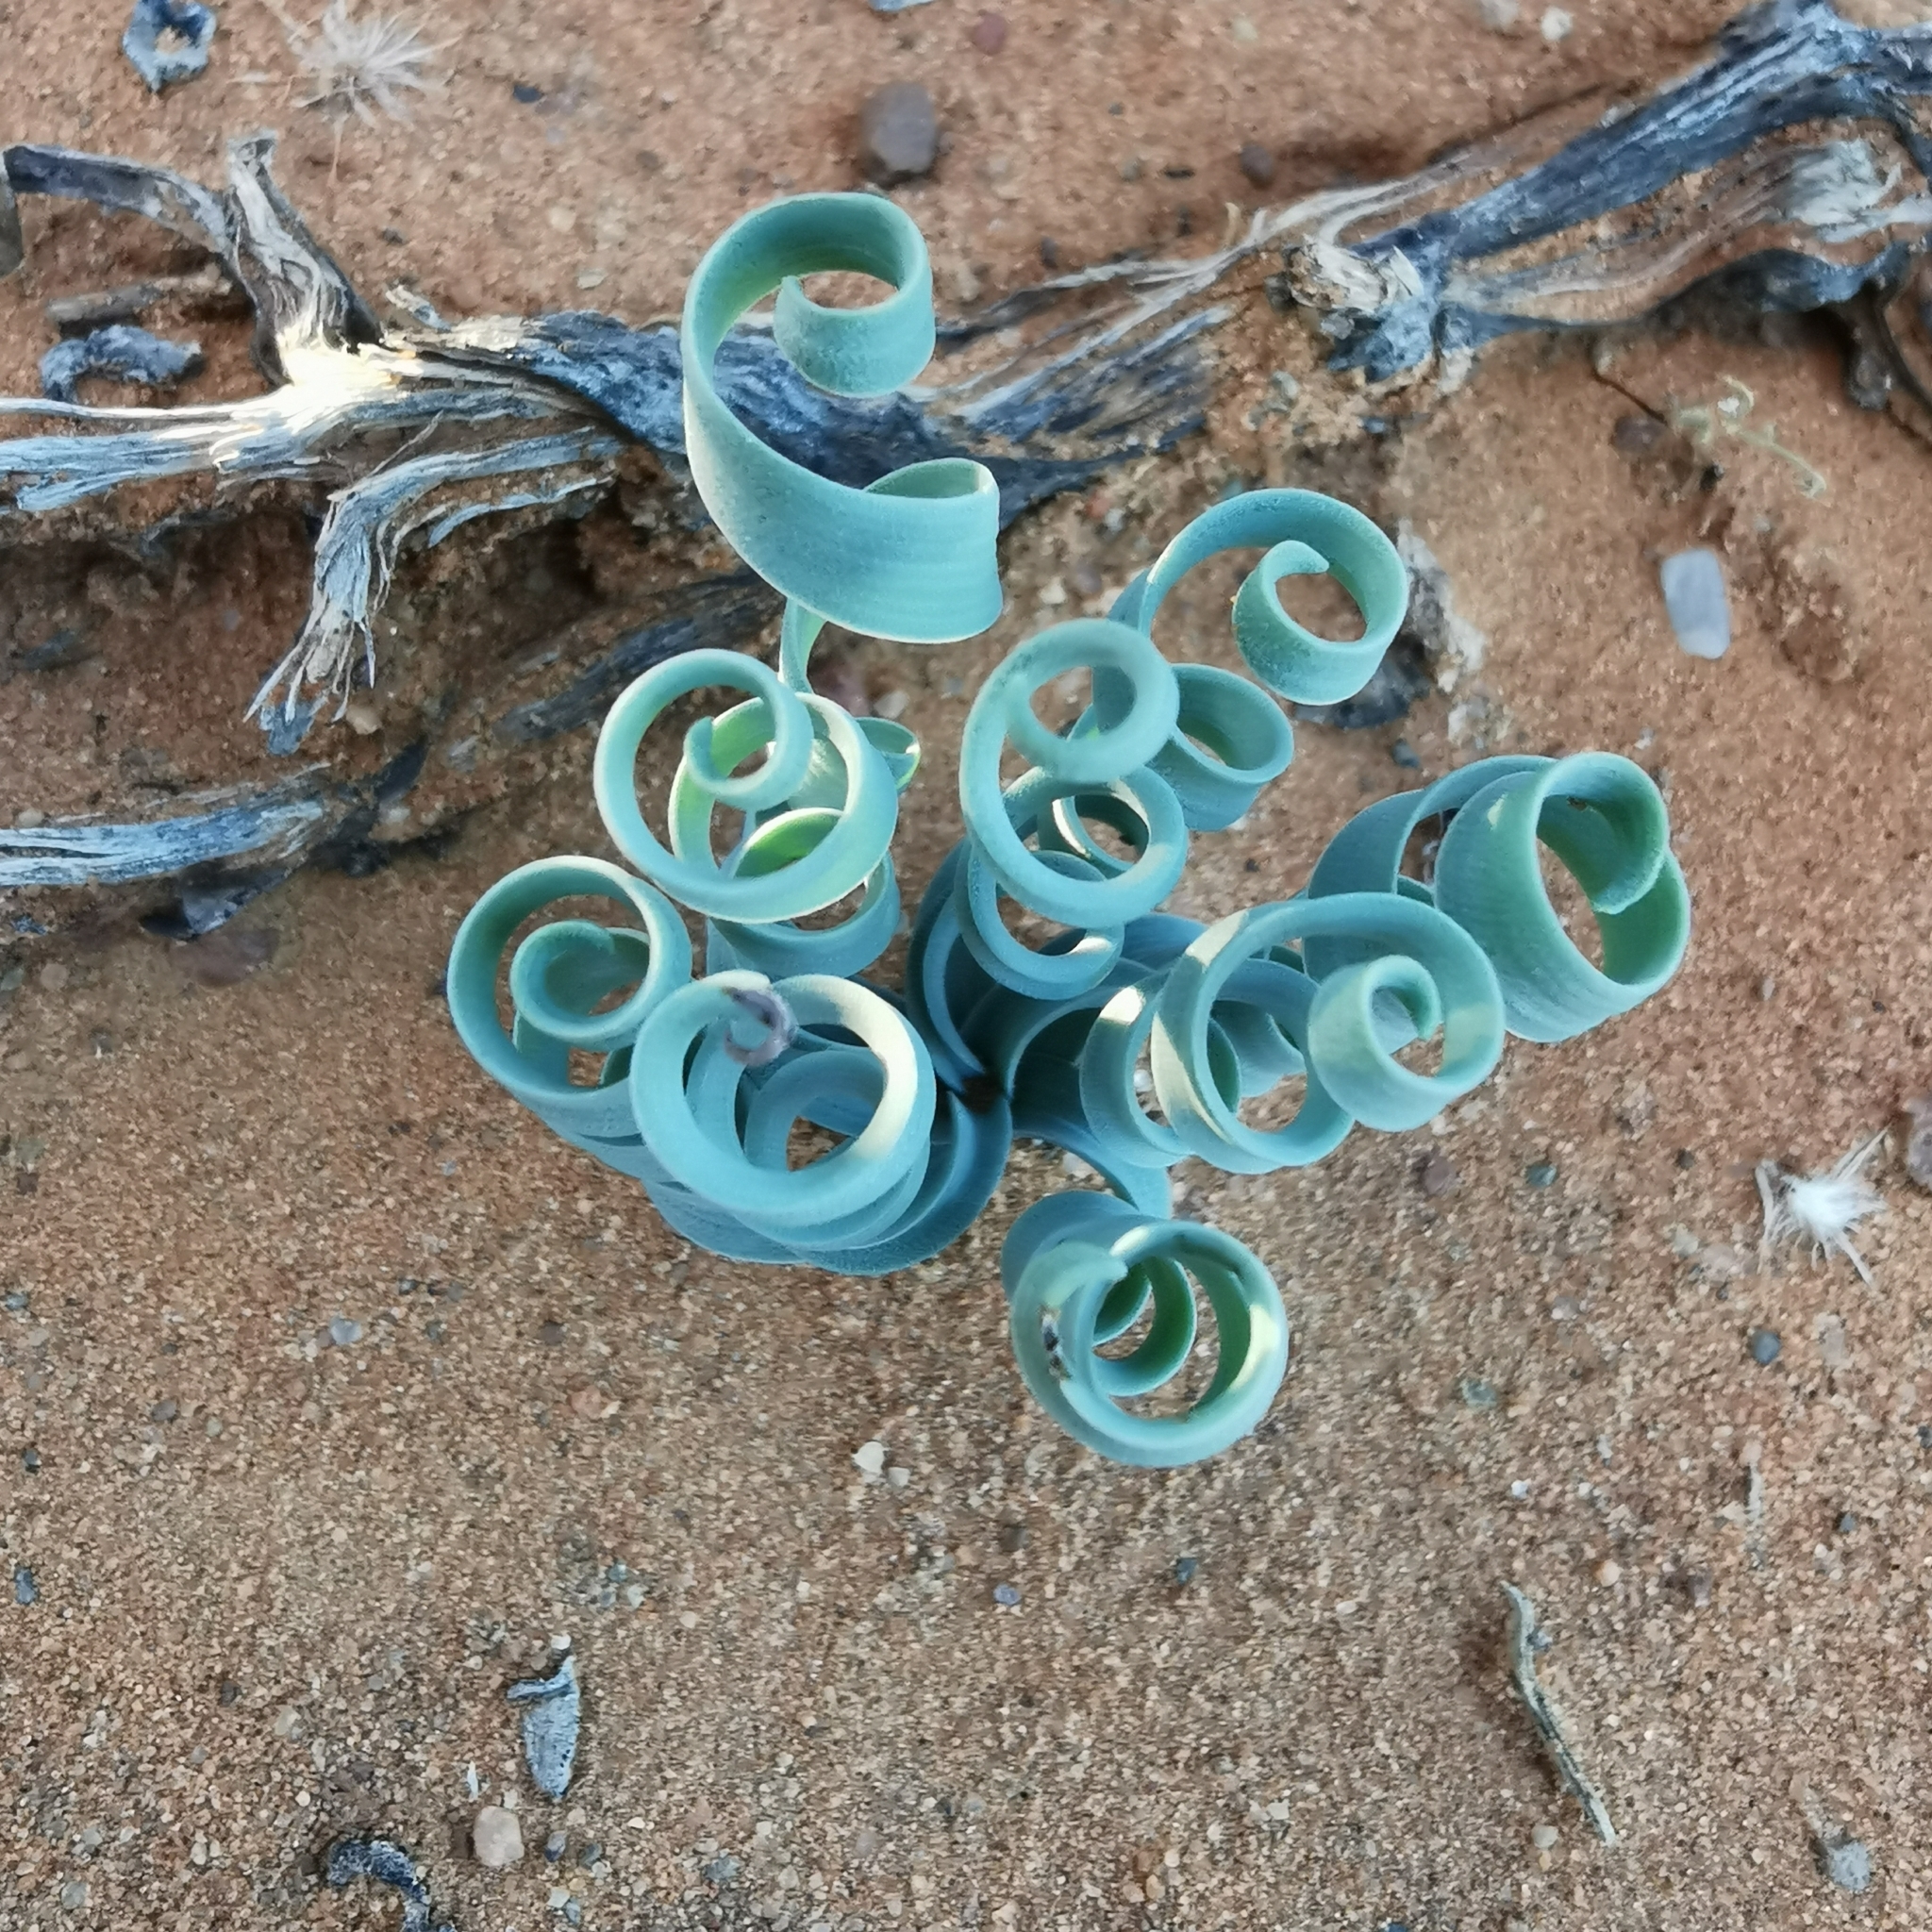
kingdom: Plantae
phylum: Tracheophyta
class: Liliopsida
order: Asparagales
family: Asparagaceae
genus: Albuca
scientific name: Albuca concordiana
